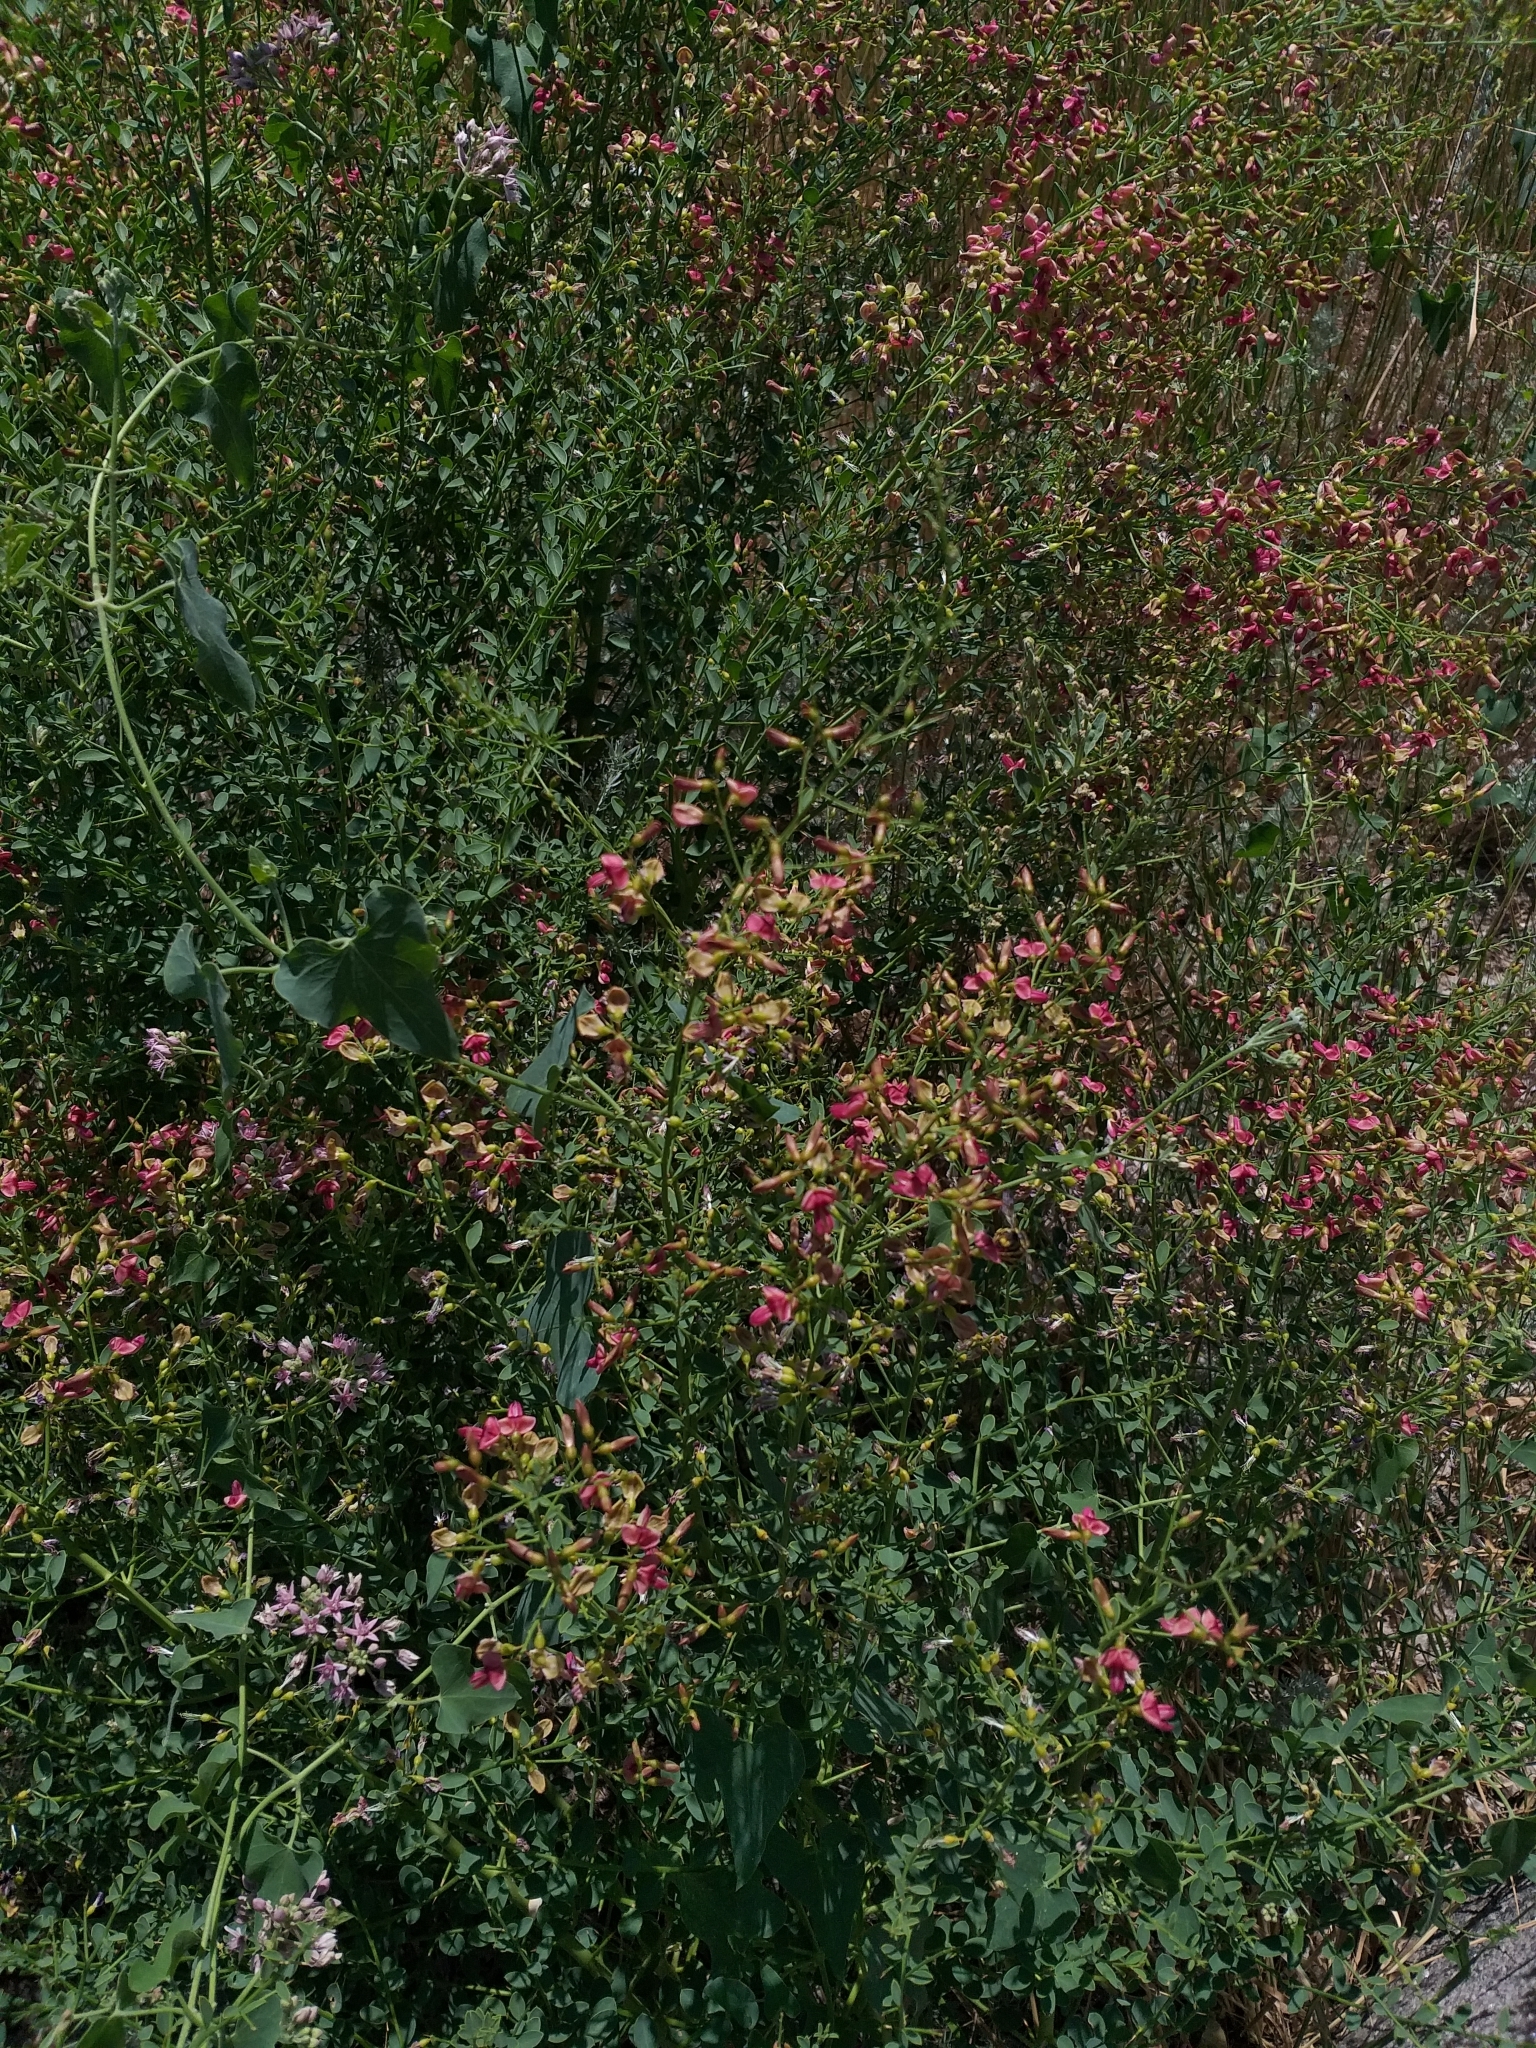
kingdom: Plantae
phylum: Tracheophyta
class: Magnoliopsida
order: Fabales
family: Fabaceae
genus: Alhagi
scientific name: Alhagi pseudalhagi
